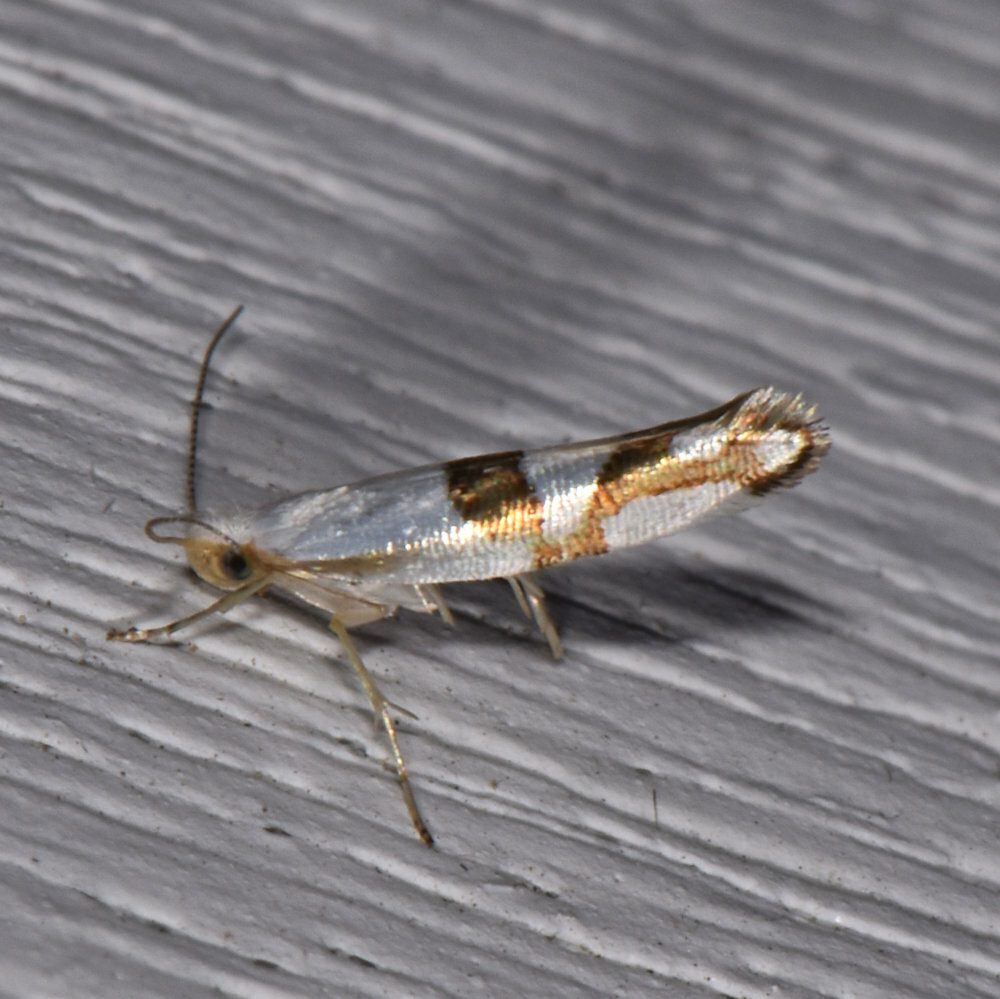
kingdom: Animalia
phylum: Arthropoda
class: Insecta
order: Lepidoptera
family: Argyresthiidae
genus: Argyresthia
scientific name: Argyresthia oreasella
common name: Cherry shoot borer moth
